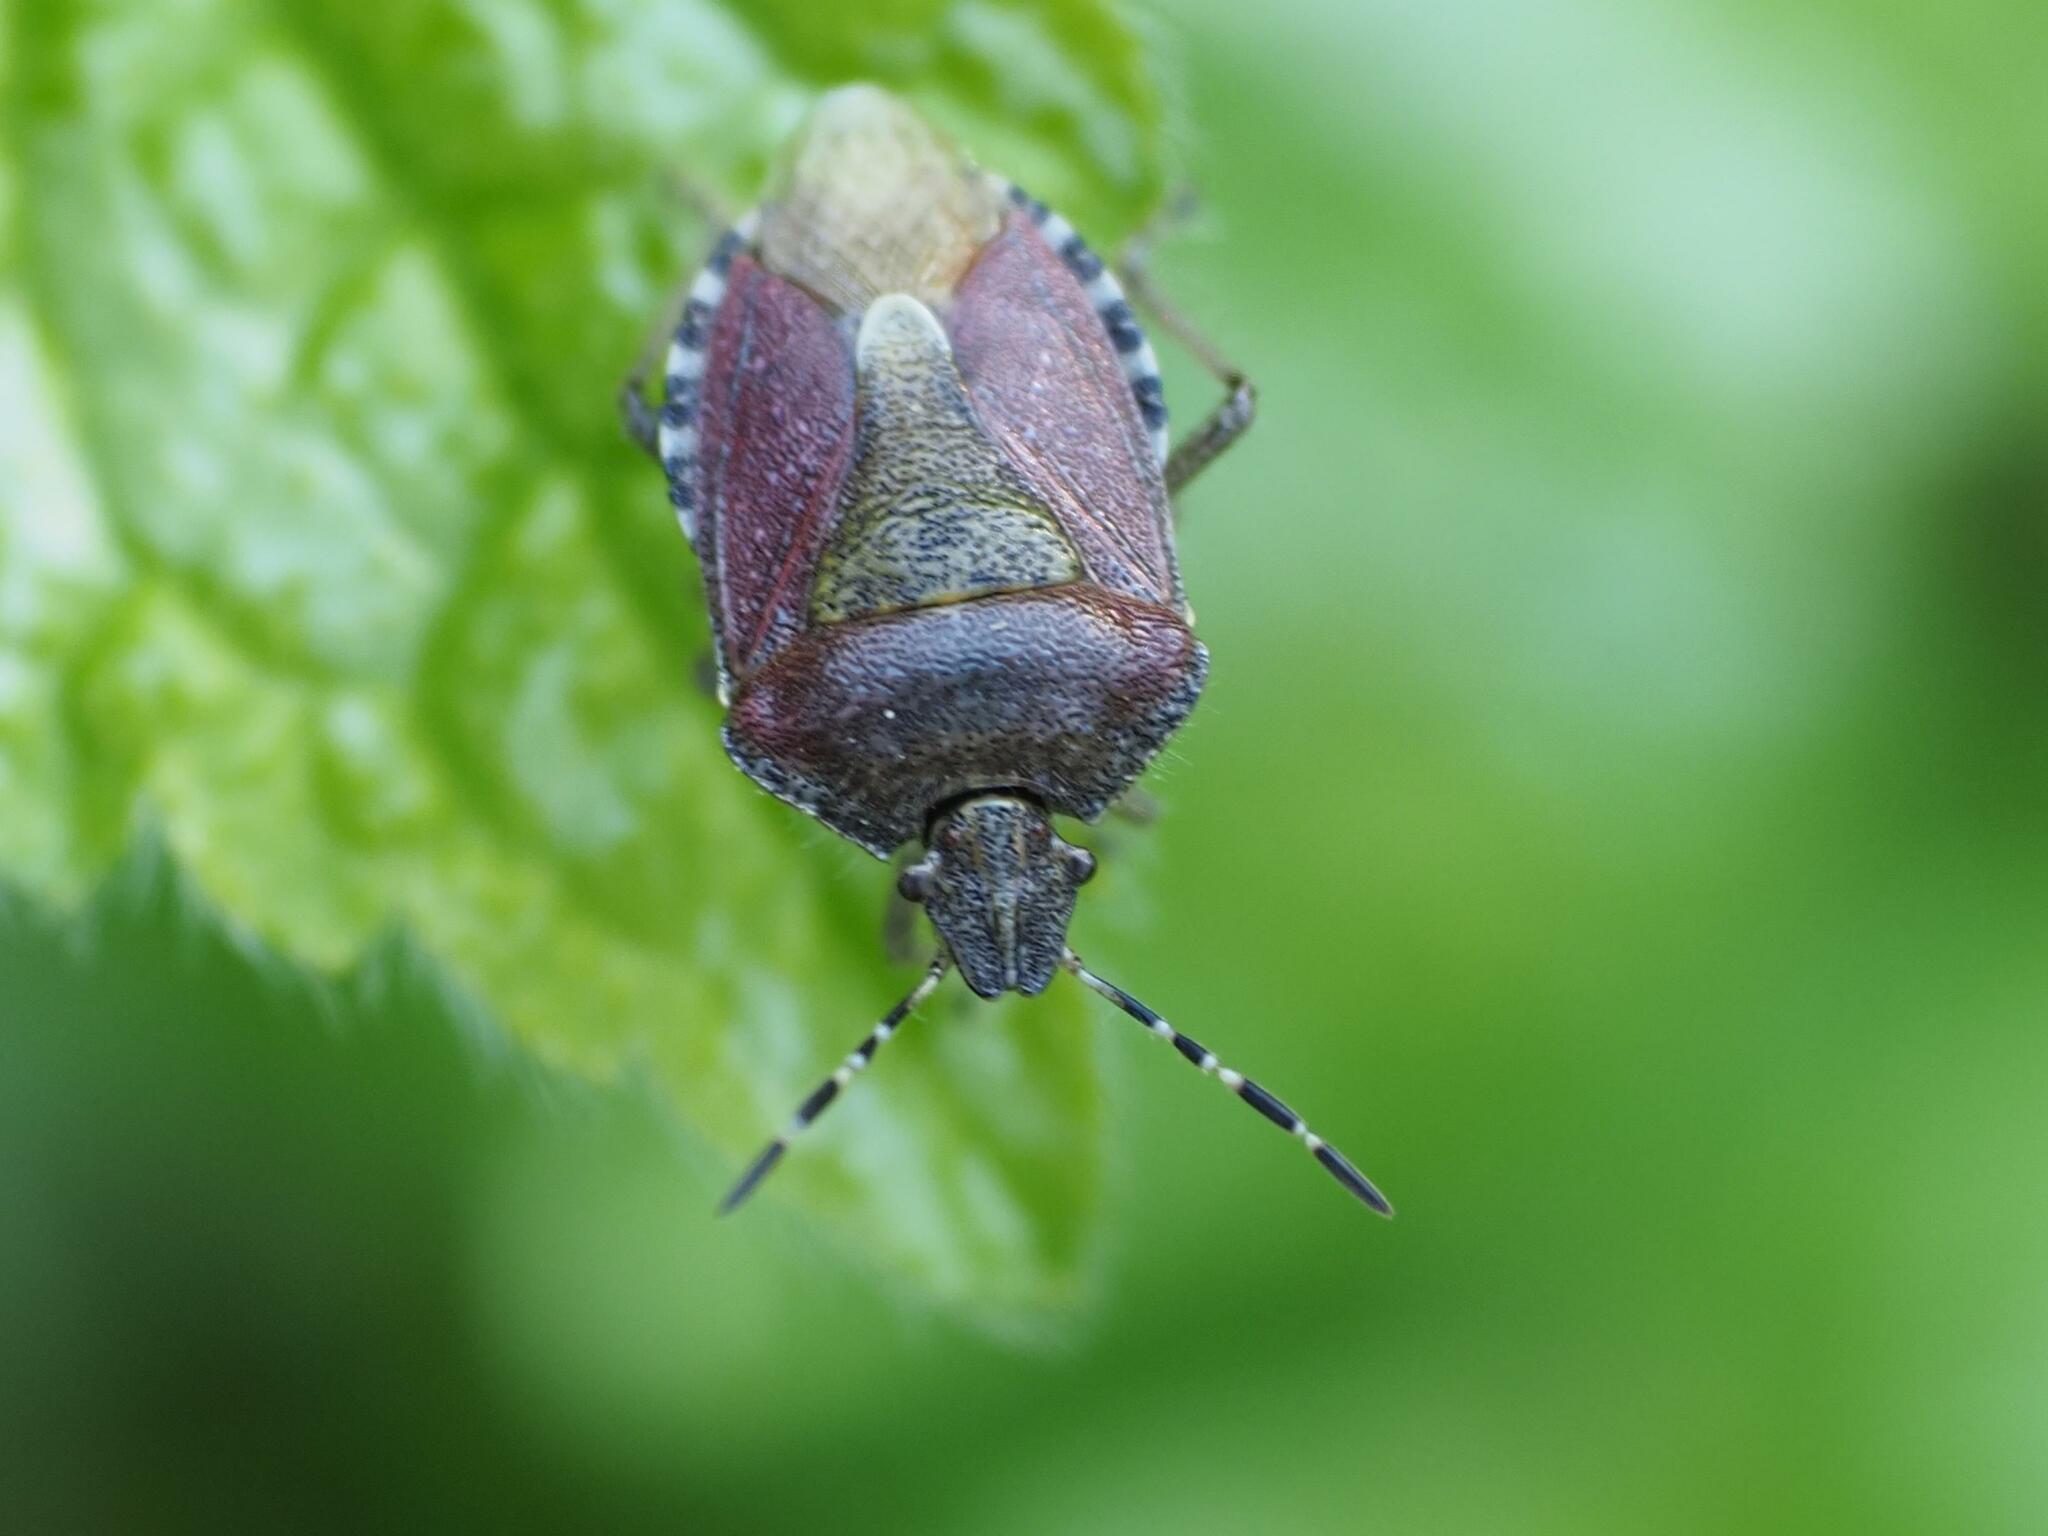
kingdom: Animalia
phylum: Arthropoda
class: Insecta
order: Hemiptera
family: Pentatomidae
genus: Dolycoris
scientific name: Dolycoris baccarum
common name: Sloe bug
